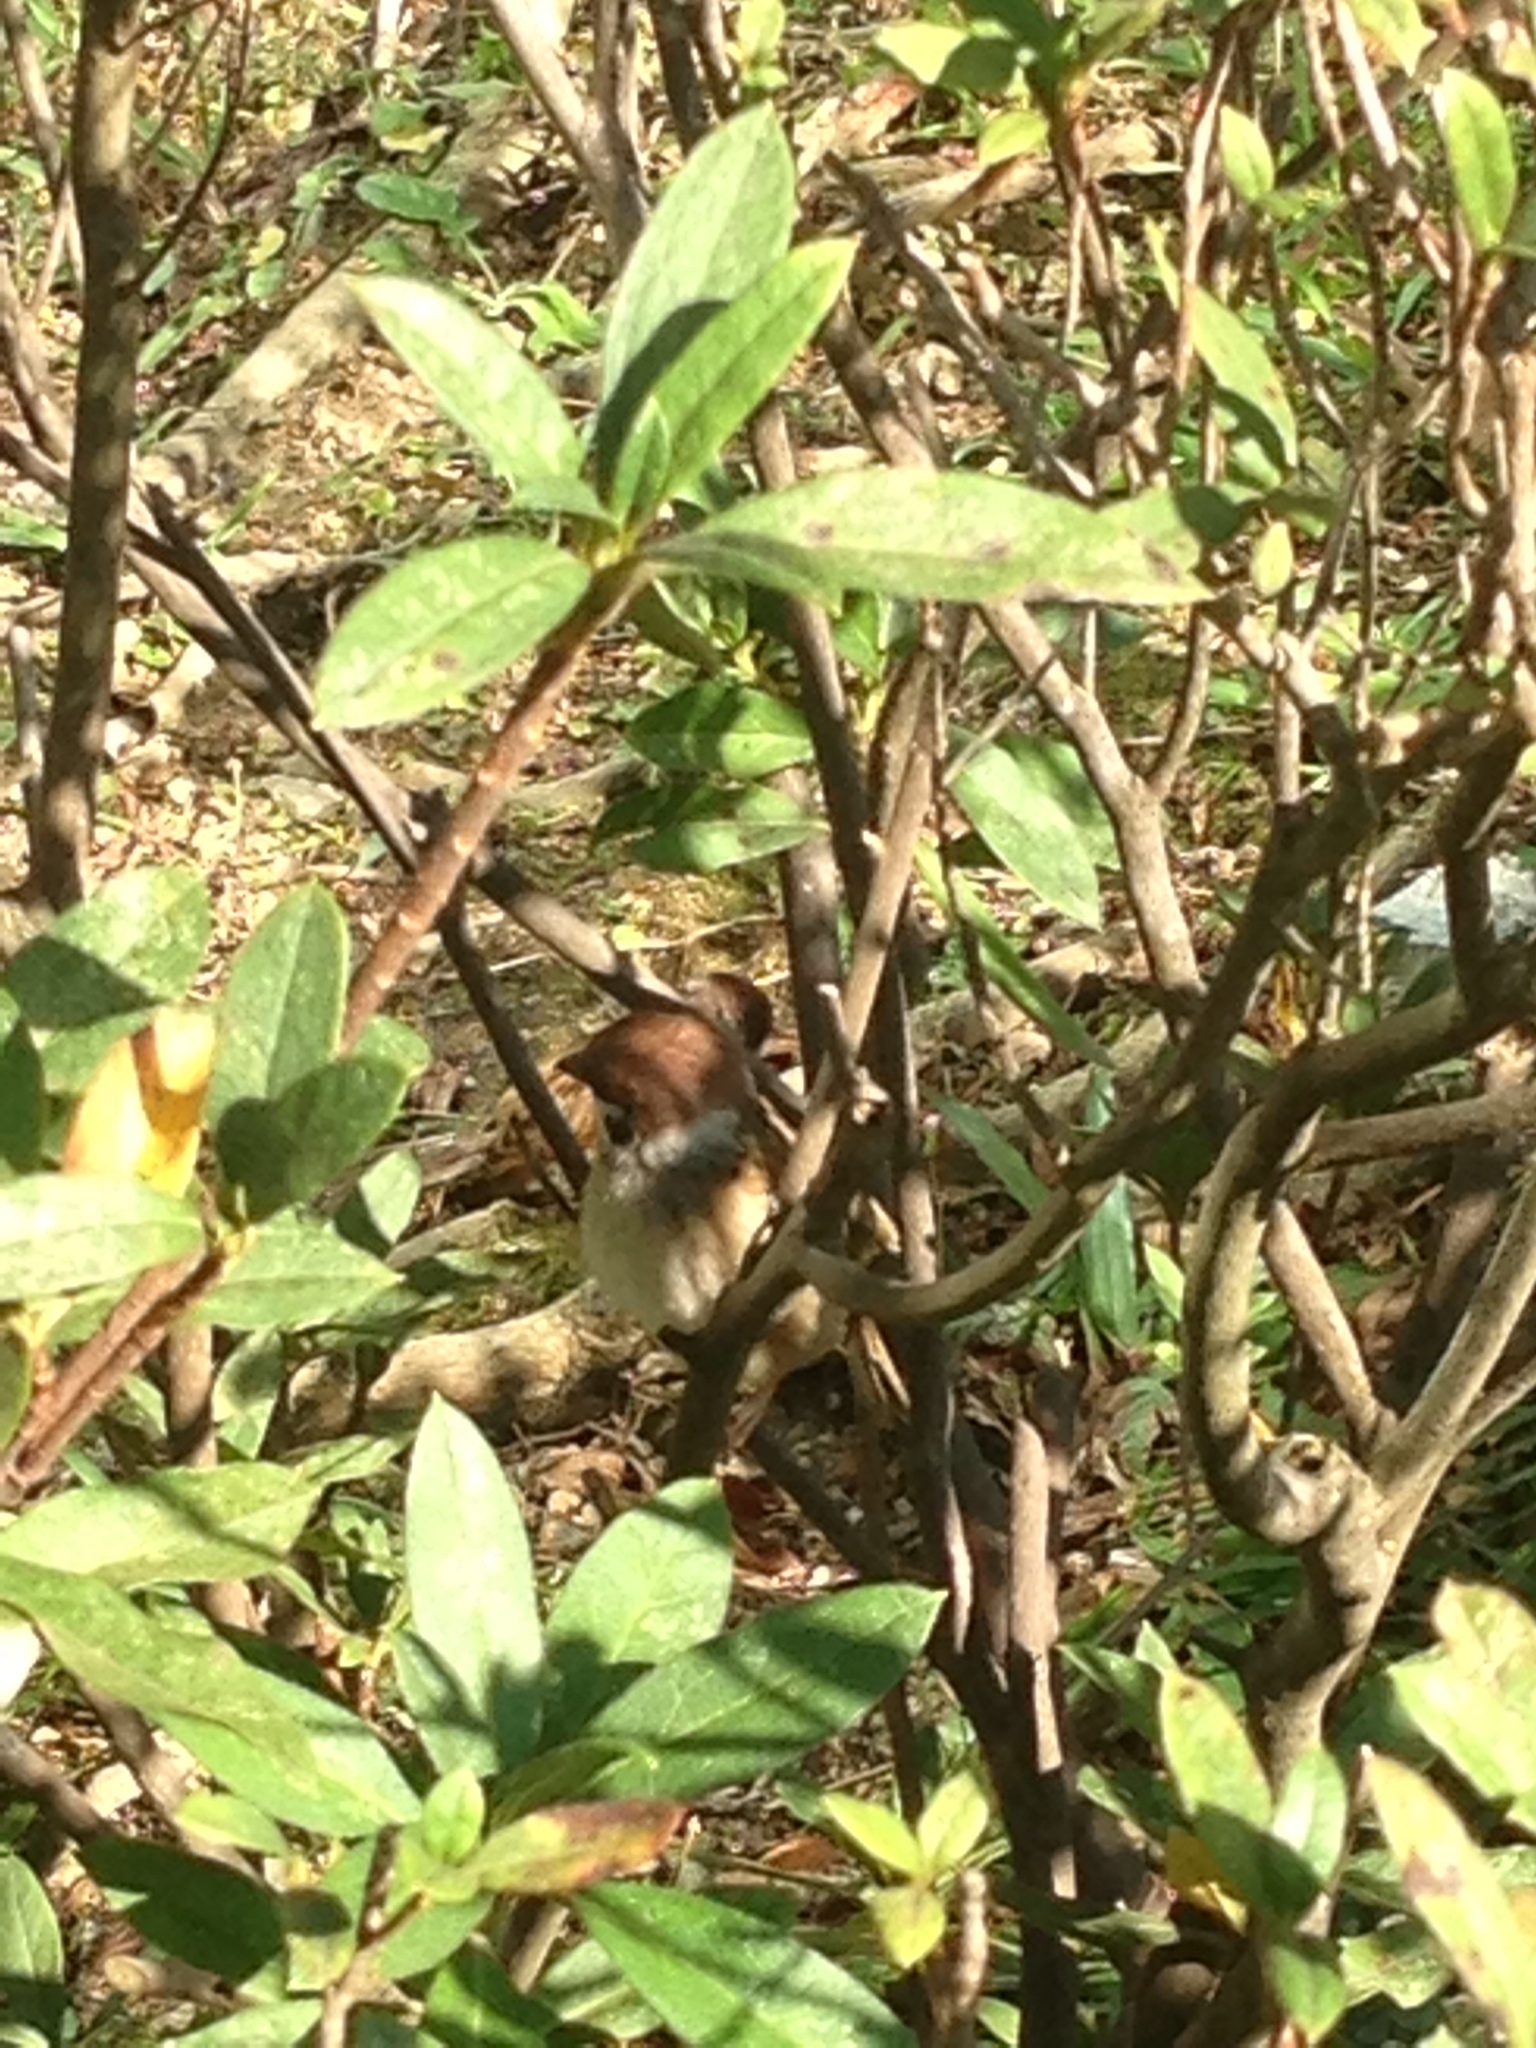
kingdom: Animalia
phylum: Chordata
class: Aves
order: Passeriformes
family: Passeridae
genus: Passer
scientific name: Passer montanus
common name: Eurasian tree sparrow
